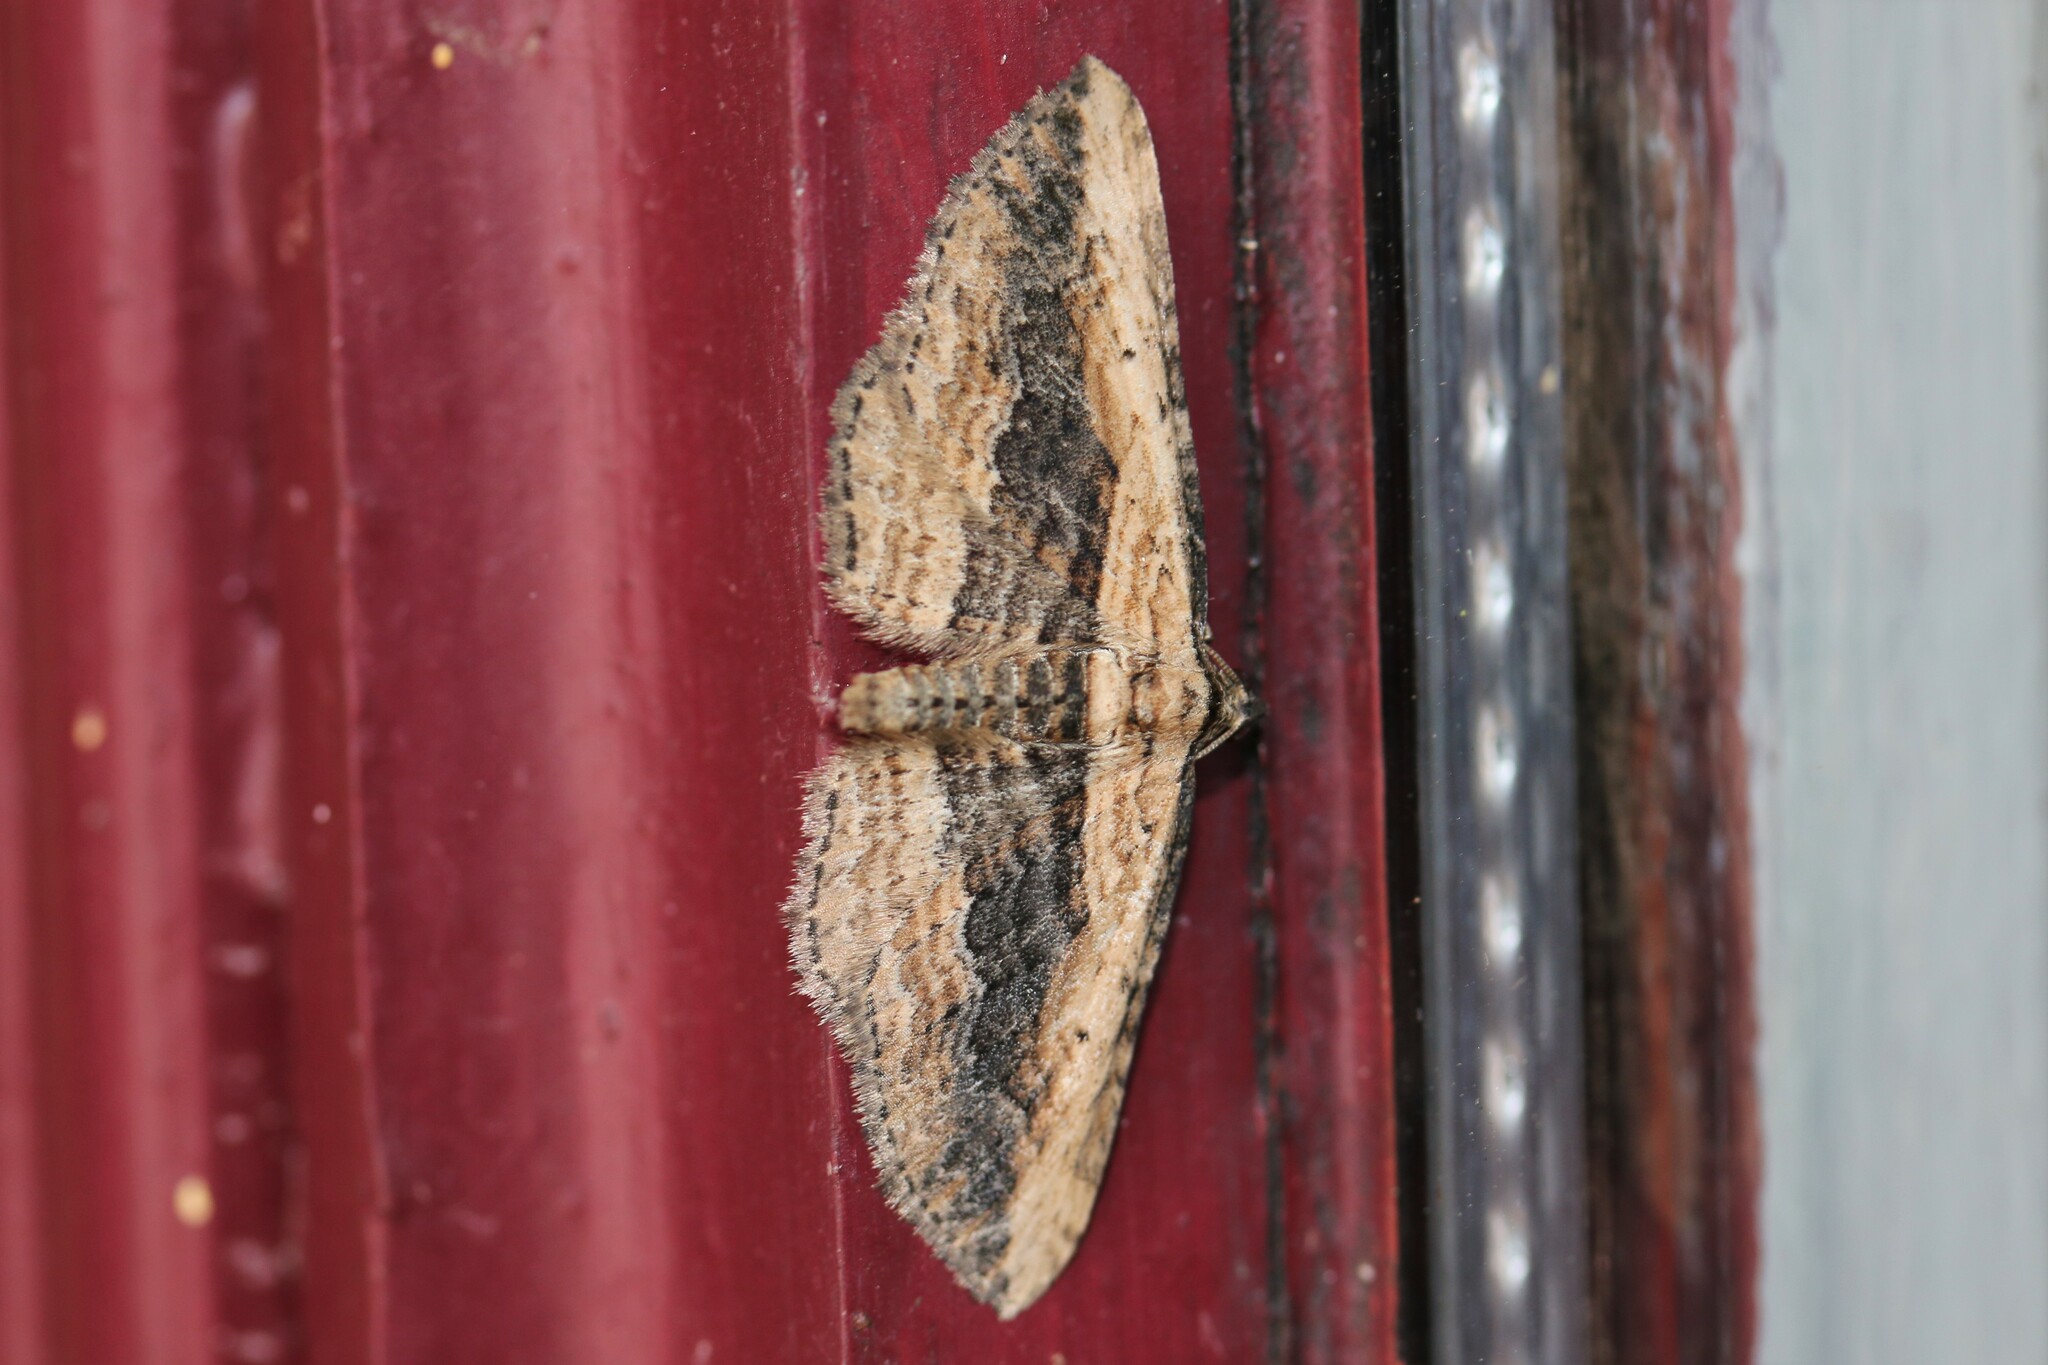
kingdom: Animalia
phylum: Arthropoda
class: Insecta
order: Lepidoptera
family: Geometridae
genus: Horisme
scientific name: Horisme vitalbata
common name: Small waved umber
